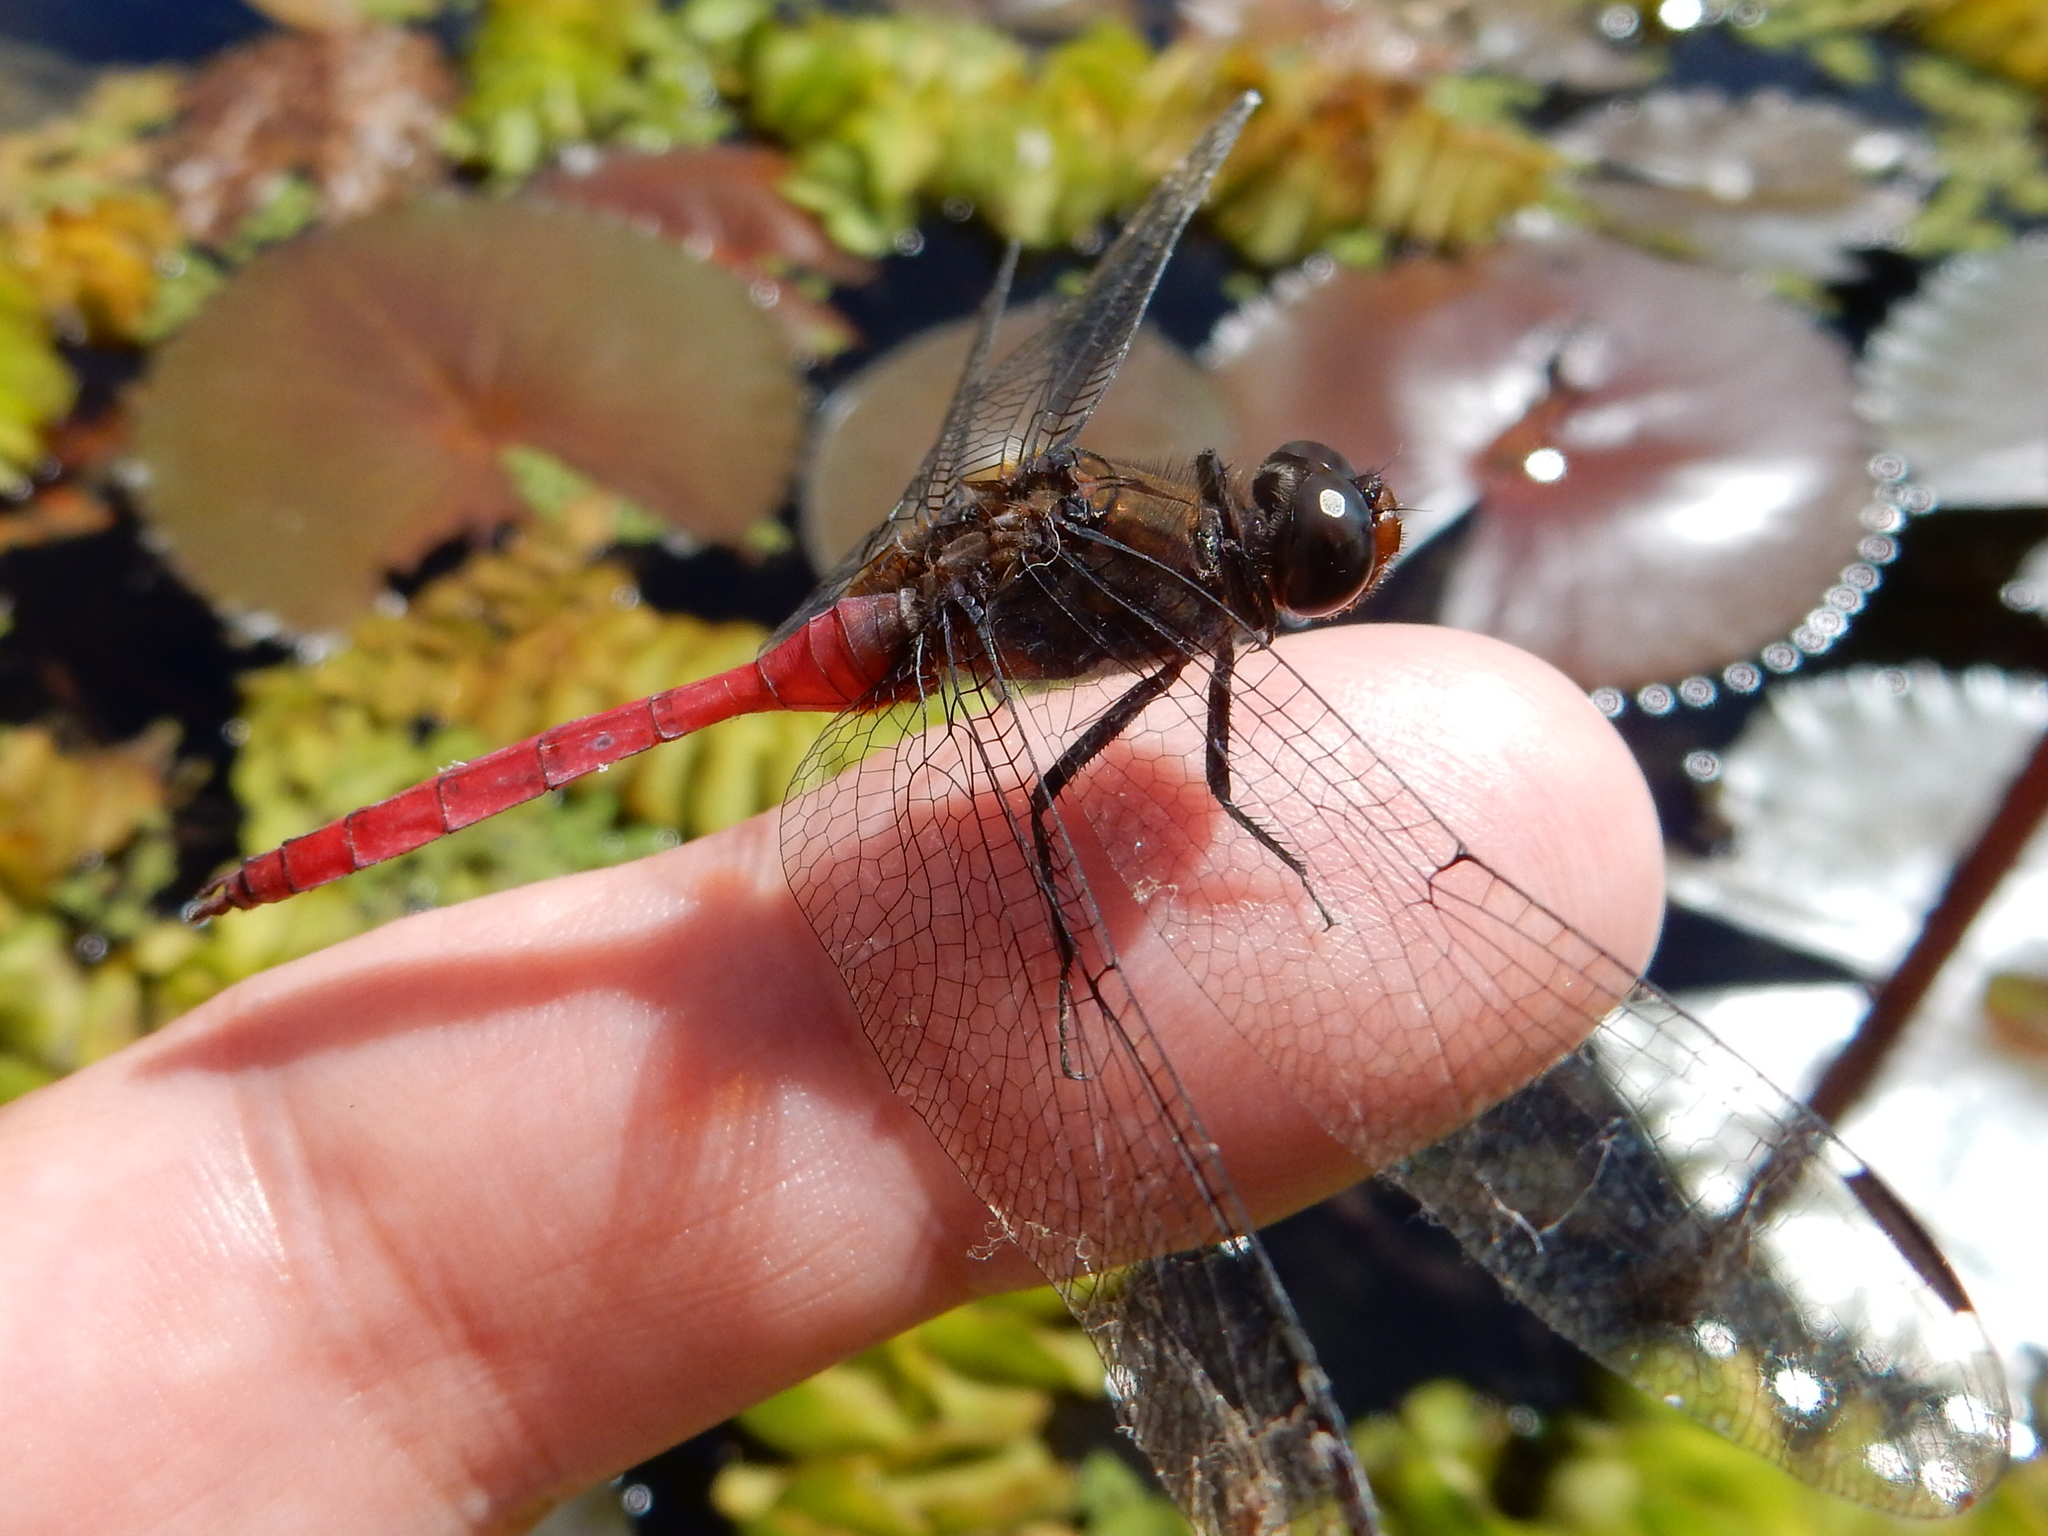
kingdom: Animalia
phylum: Arthropoda
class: Insecta
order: Odonata
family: Libellulidae
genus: Orthetrum
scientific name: Orthetrum villosovittatum
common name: Firery skimmer
